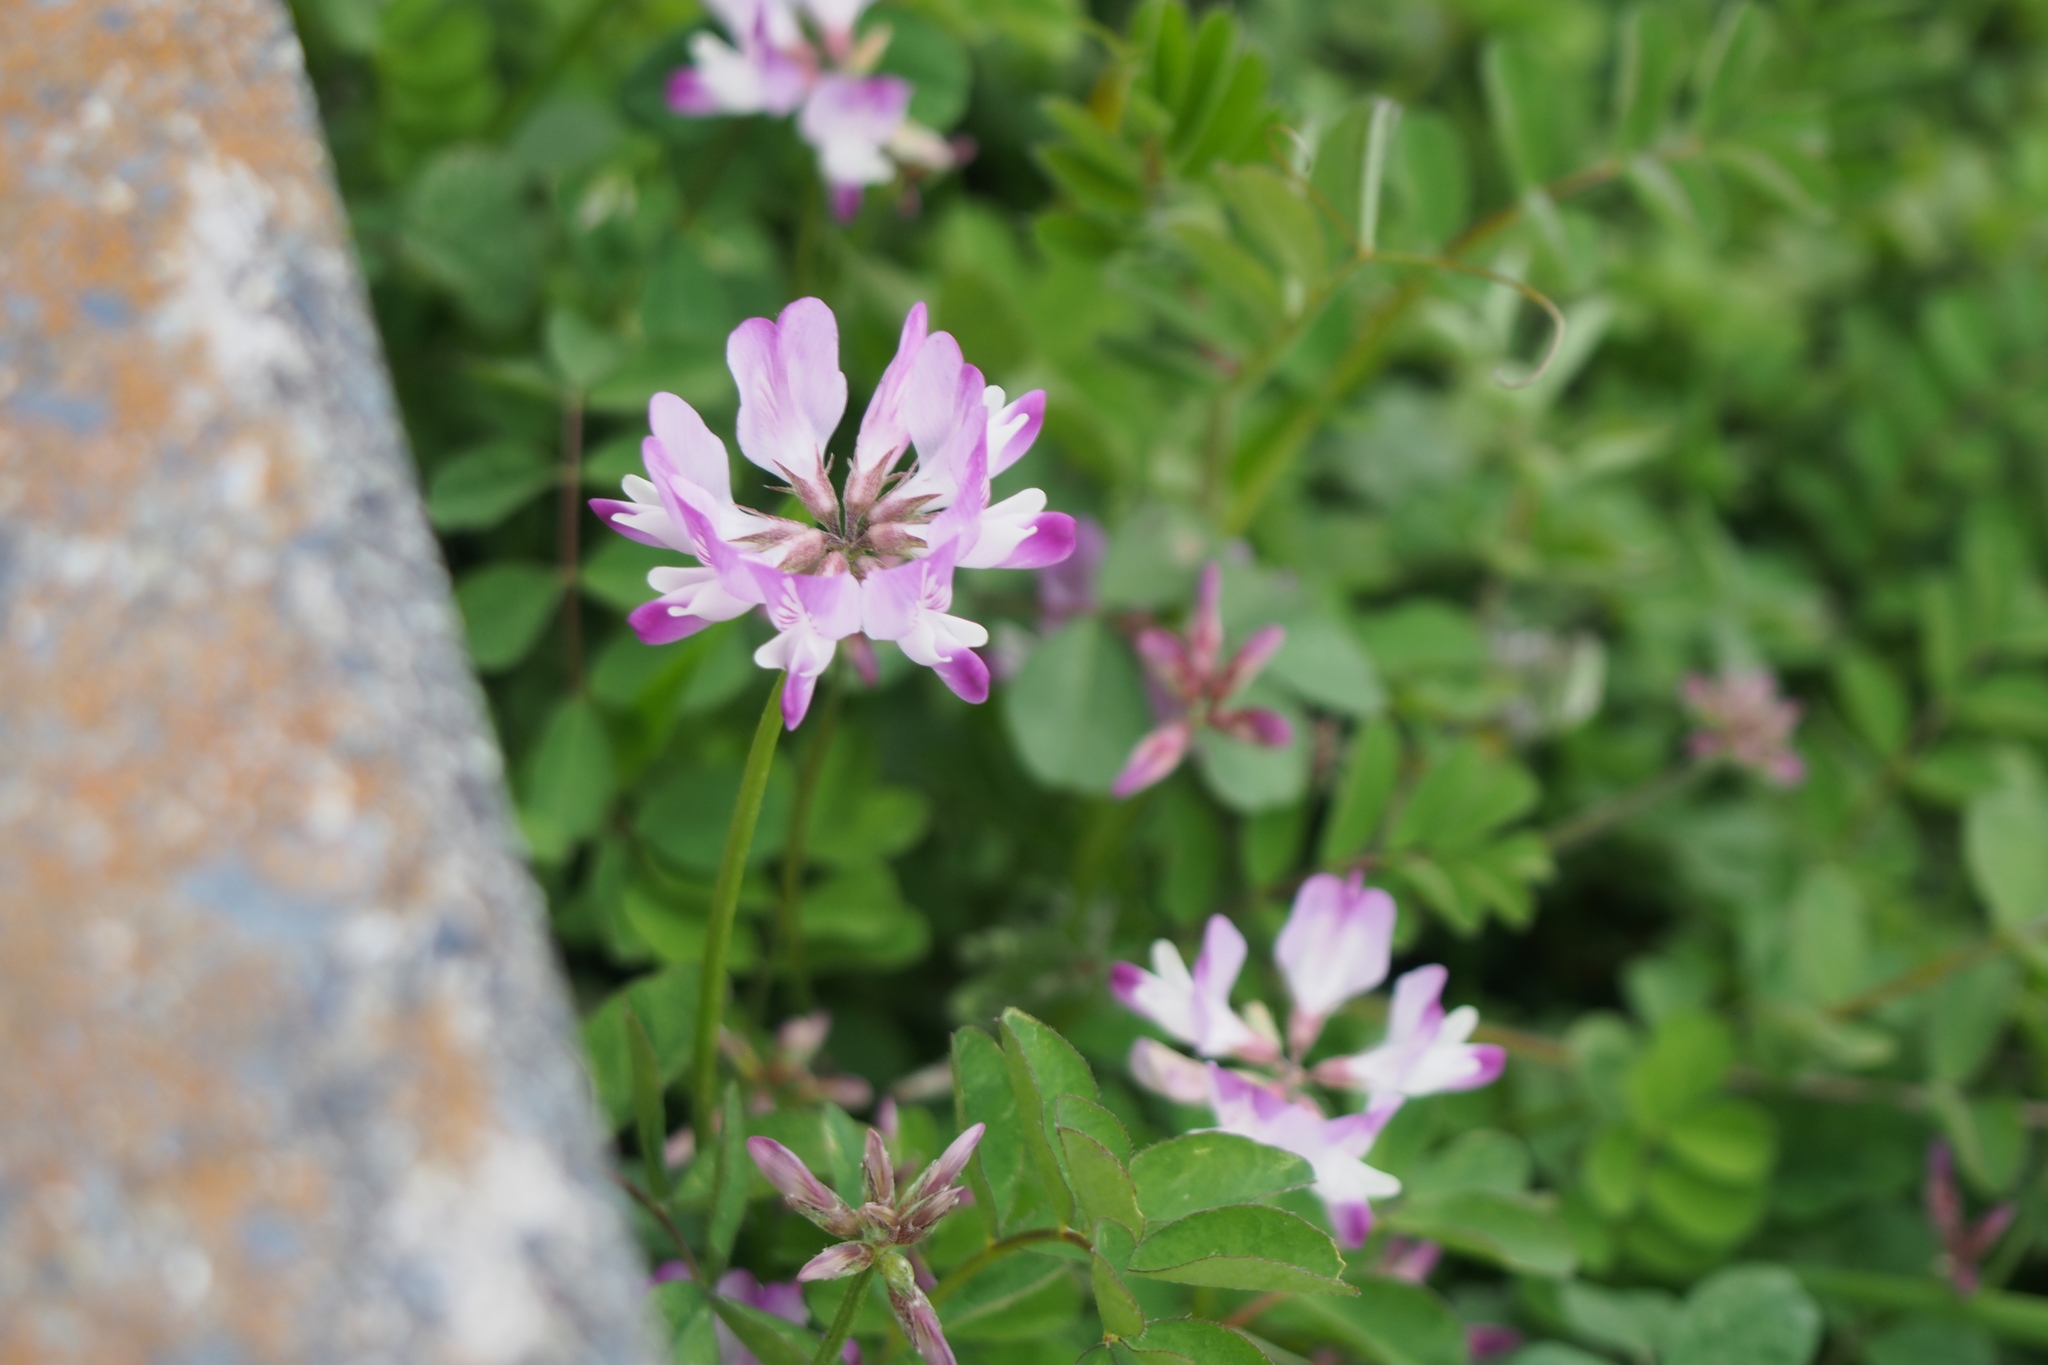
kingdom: Plantae
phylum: Tracheophyta
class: Magnoliopsida
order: Fabales
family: Fabaceae
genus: Astragalus
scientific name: Astragalus sinicus
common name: Chinese milk-vetch
